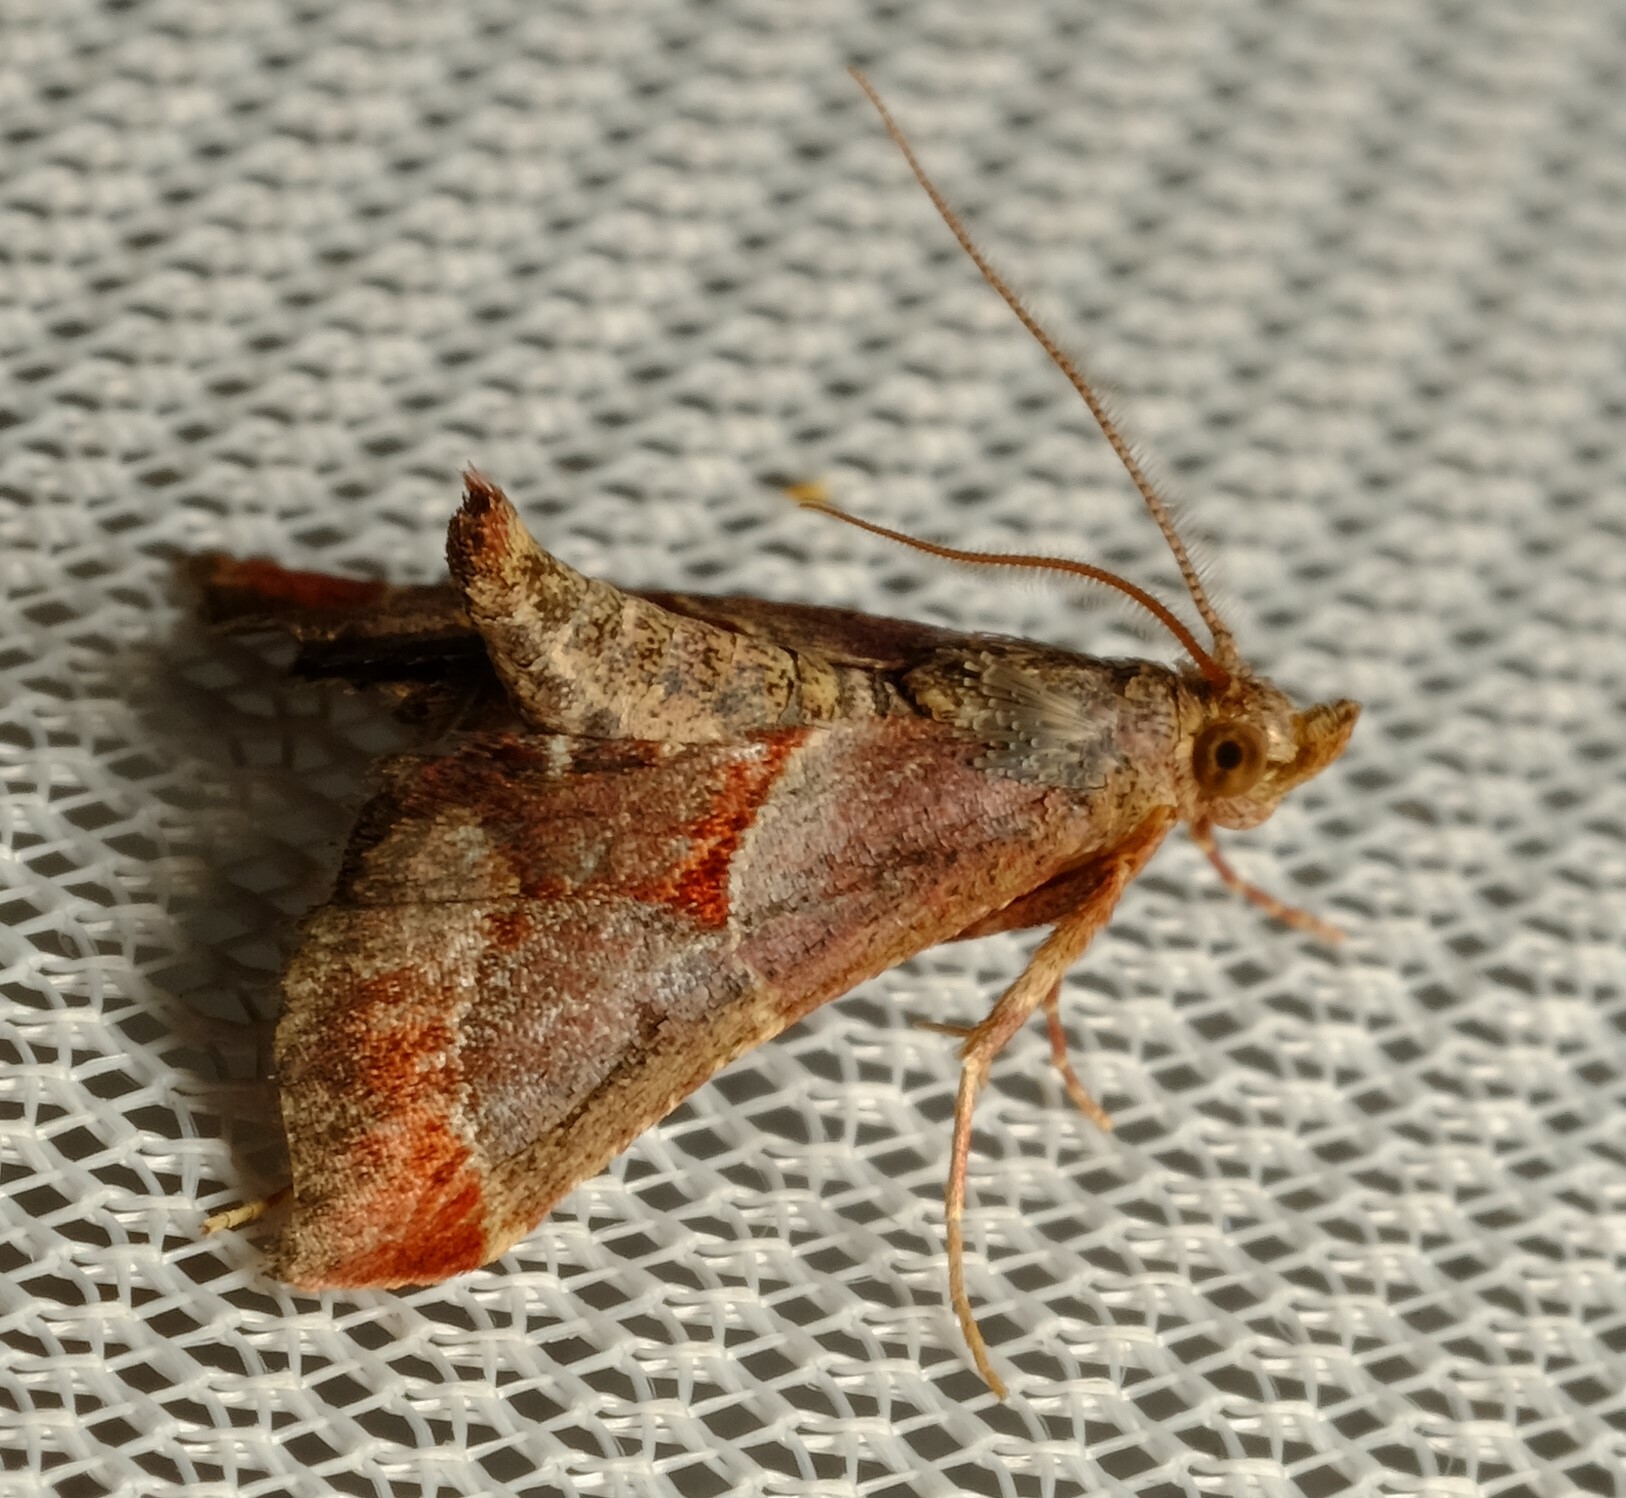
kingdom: Animalia
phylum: Arthropoda
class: Insecta
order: Lepidoptera
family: Pyralidae
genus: Gauna
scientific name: Gauna aegusalis
